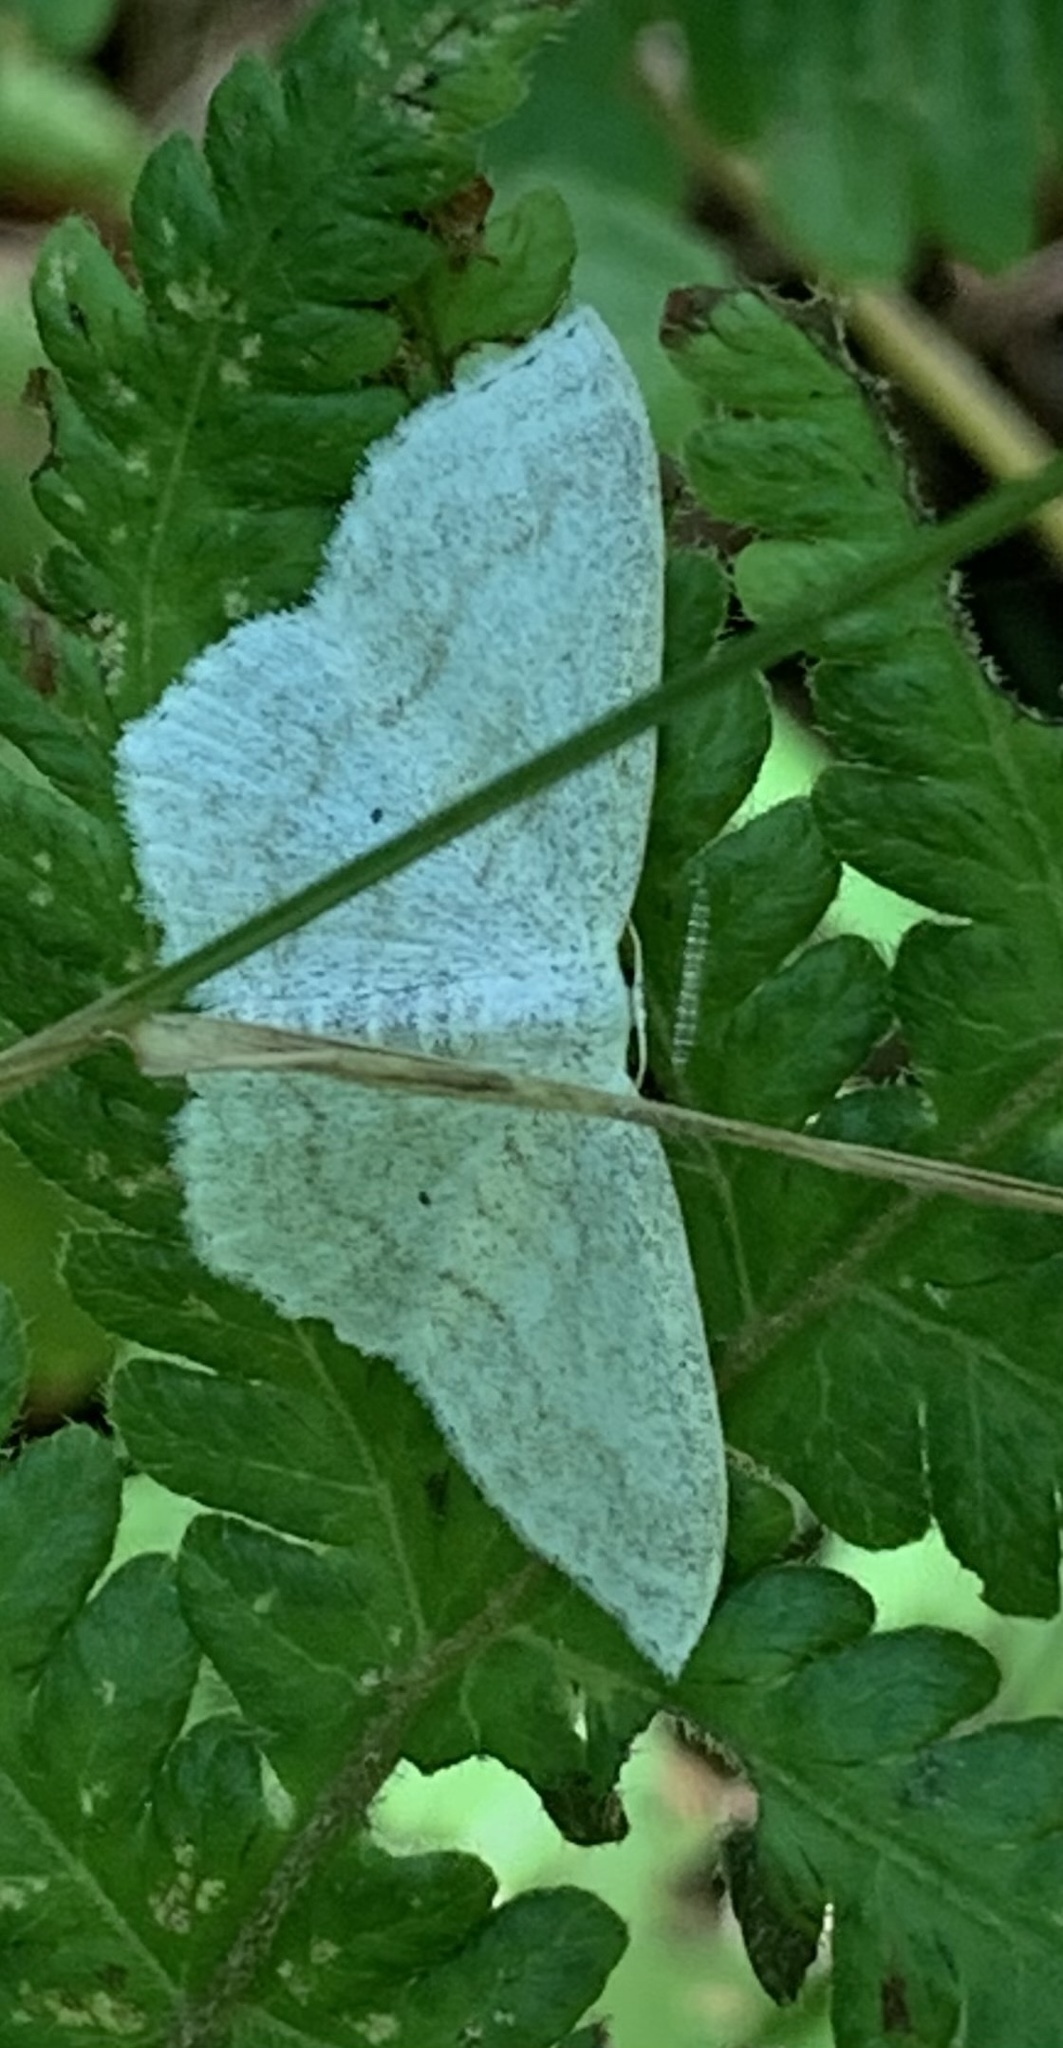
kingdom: Animalia
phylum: Arthropoda
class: Insecta
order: Lepidoptera
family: Geometridae
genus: Scopula
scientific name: Scopula limboundata
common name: Large lace border
